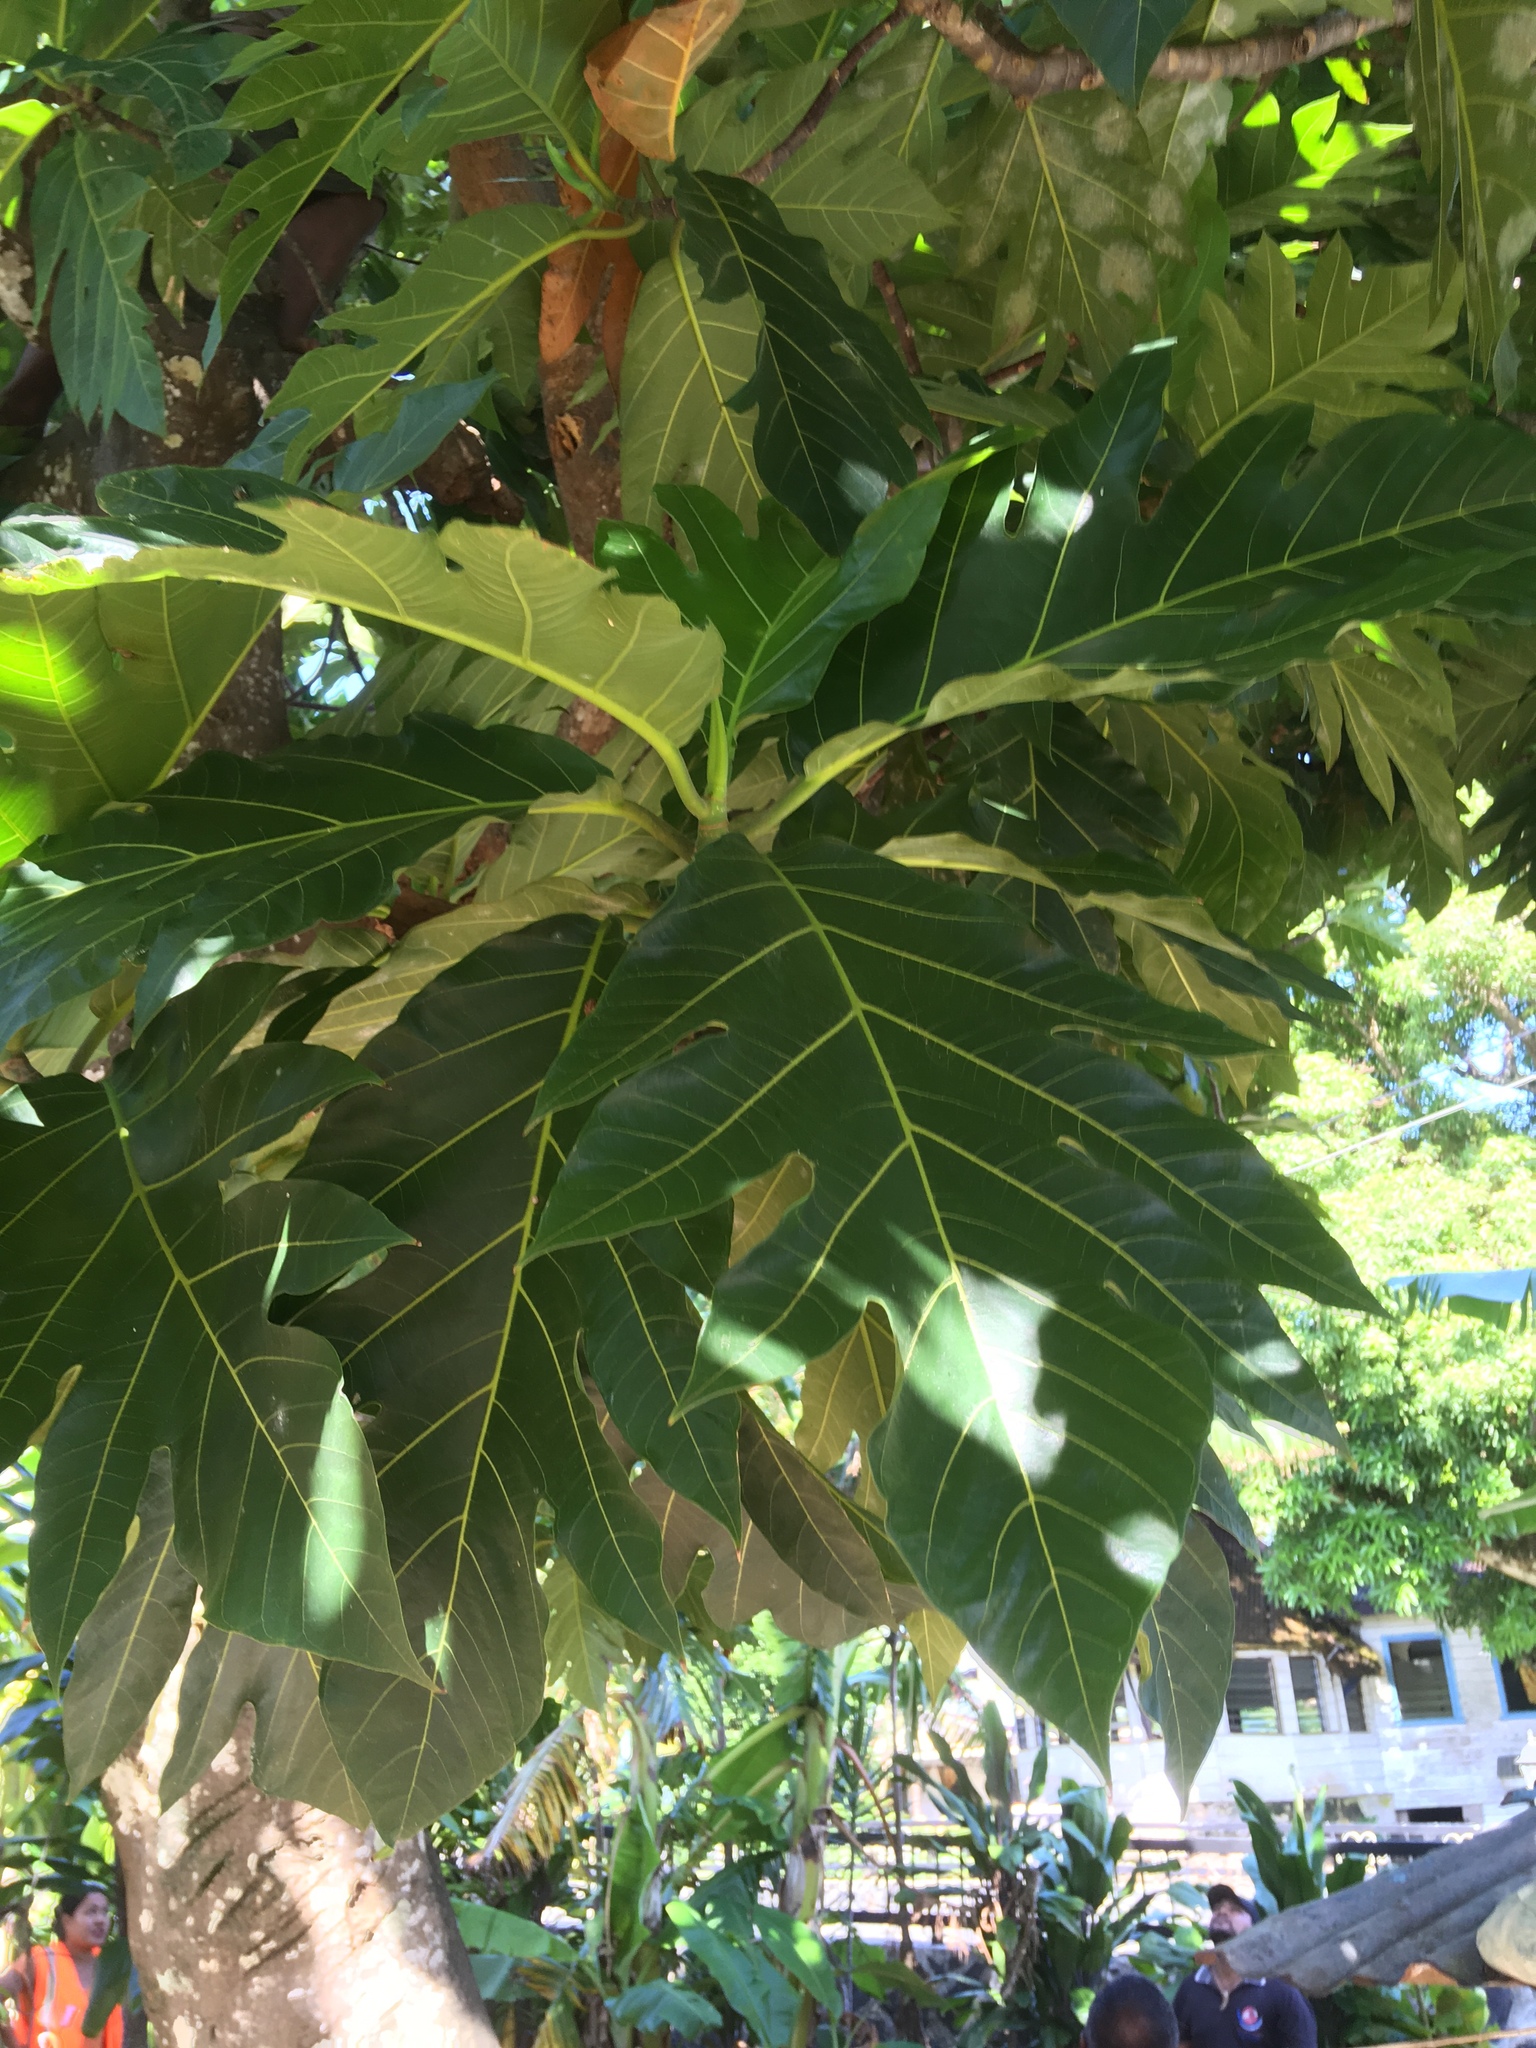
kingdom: Plantae
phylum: Tracheophyta
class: Magnoliopsida
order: Rosales
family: Moraceae
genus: Artocarpus
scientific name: Artocarpus altilis
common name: Breadfruit
